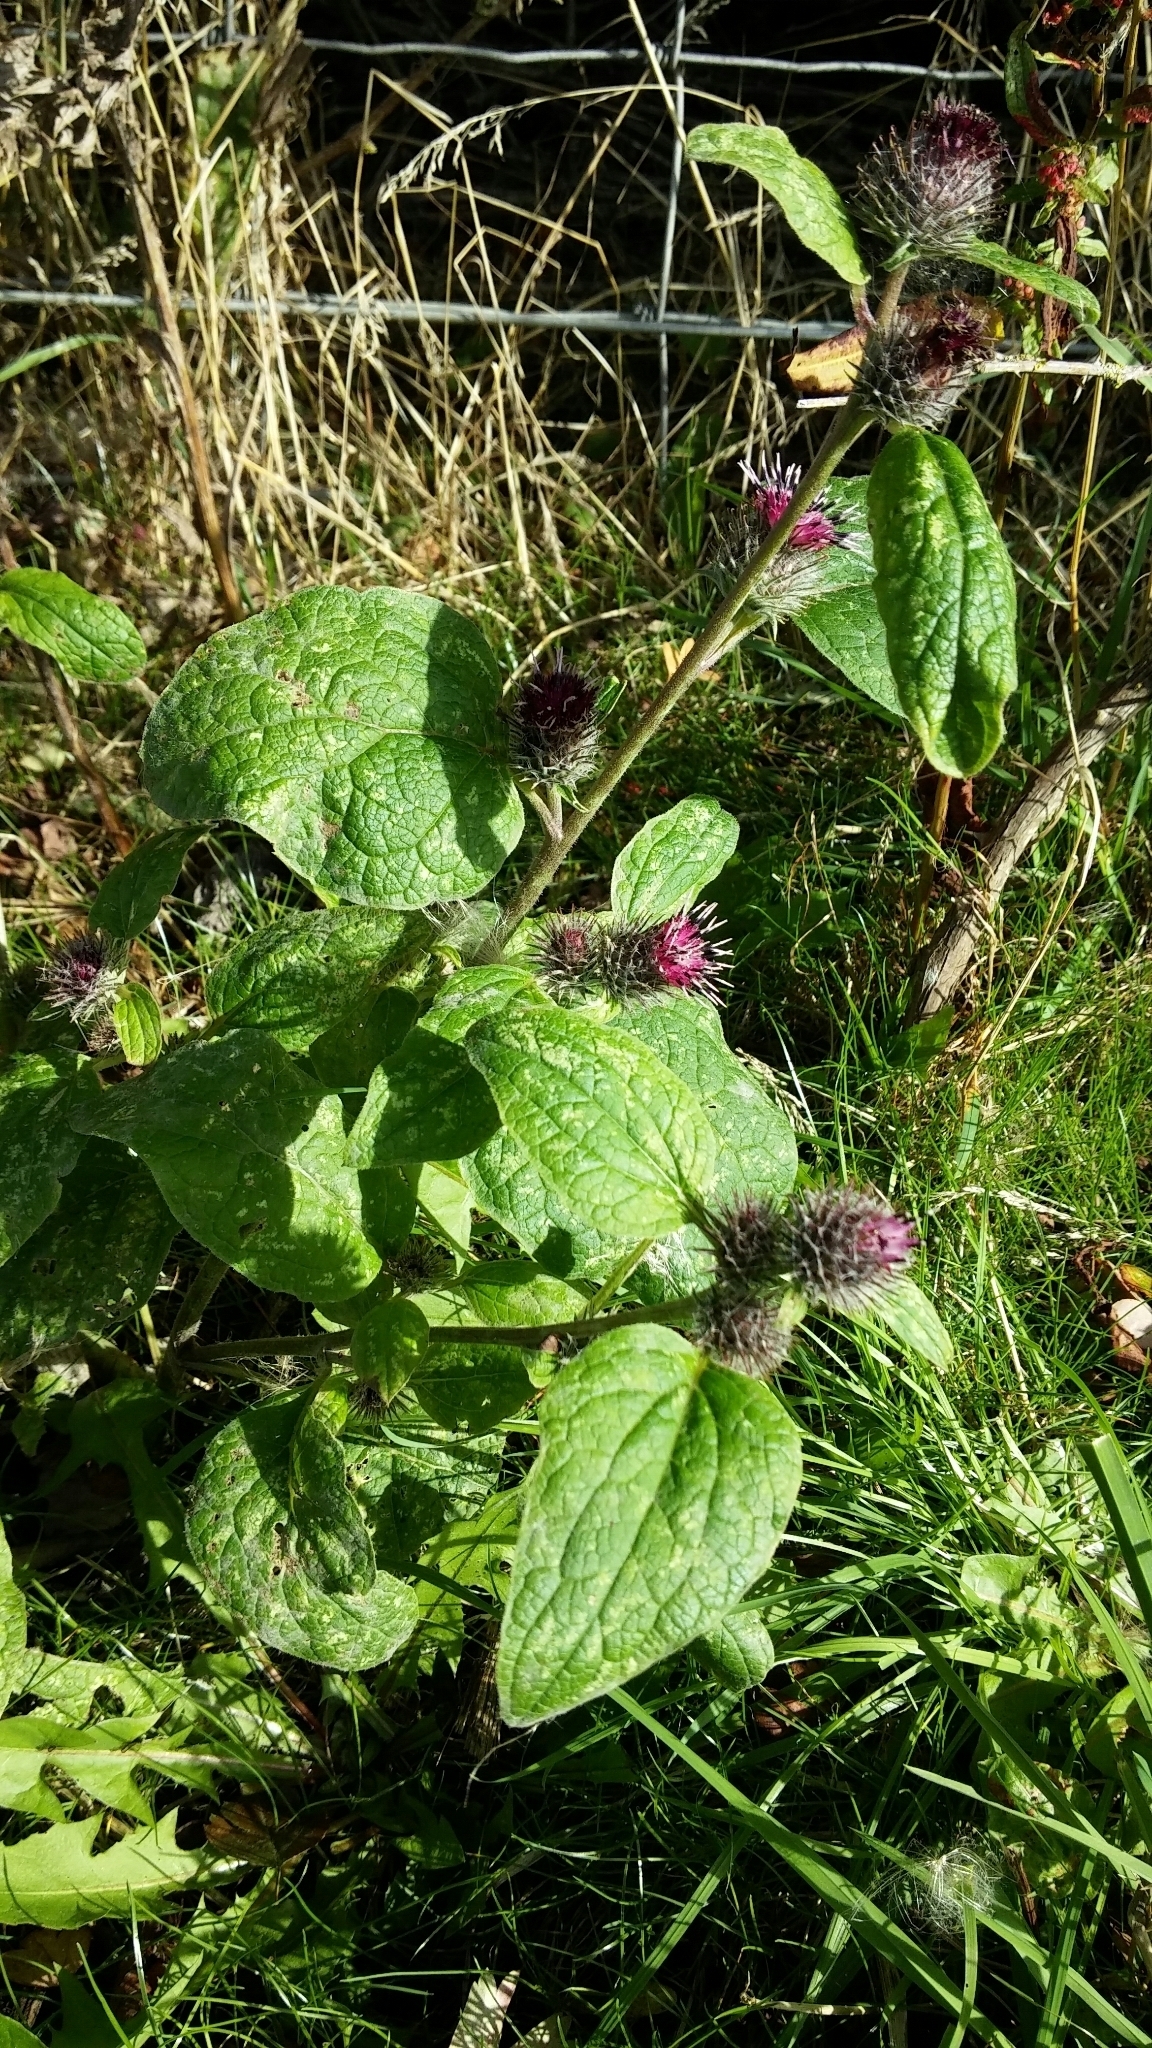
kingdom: Plantae
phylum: Tracheophyta
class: Magnoliopsida
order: Asterales
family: Asteraceae
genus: Arctium
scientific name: Arctium minus
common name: Lesser burdock
